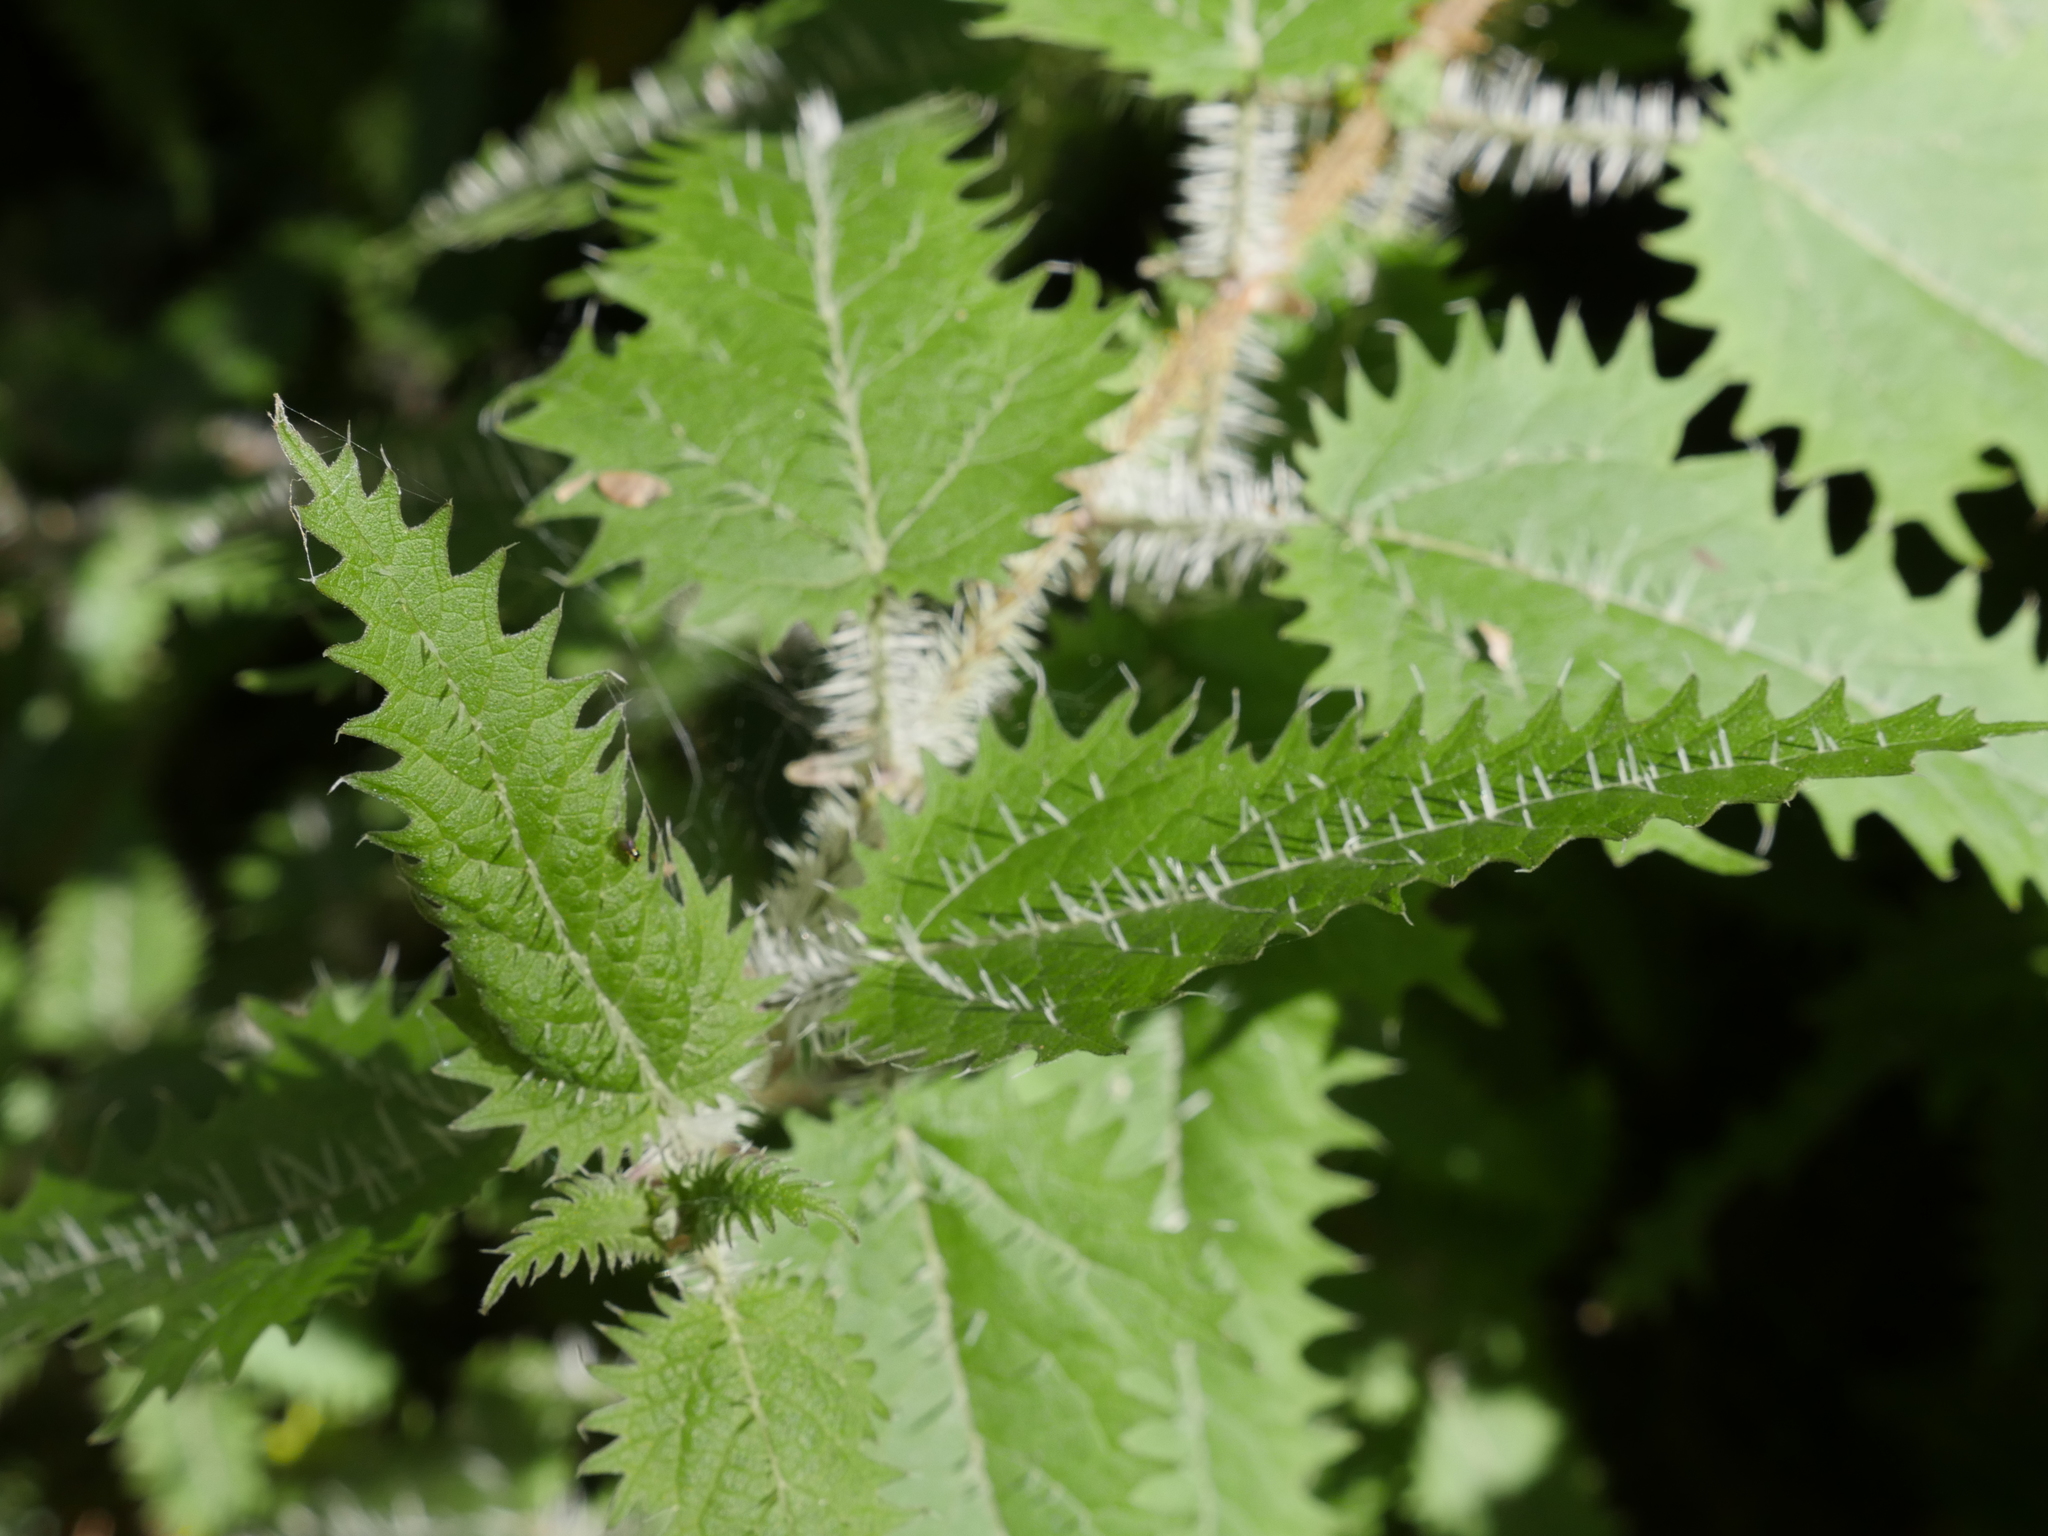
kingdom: Plantae
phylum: Tracheophyta
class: Magnoliopsida
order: Rosales
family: Urticaceae
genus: Urtica
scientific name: Urtica ferox
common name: Tree nettle
